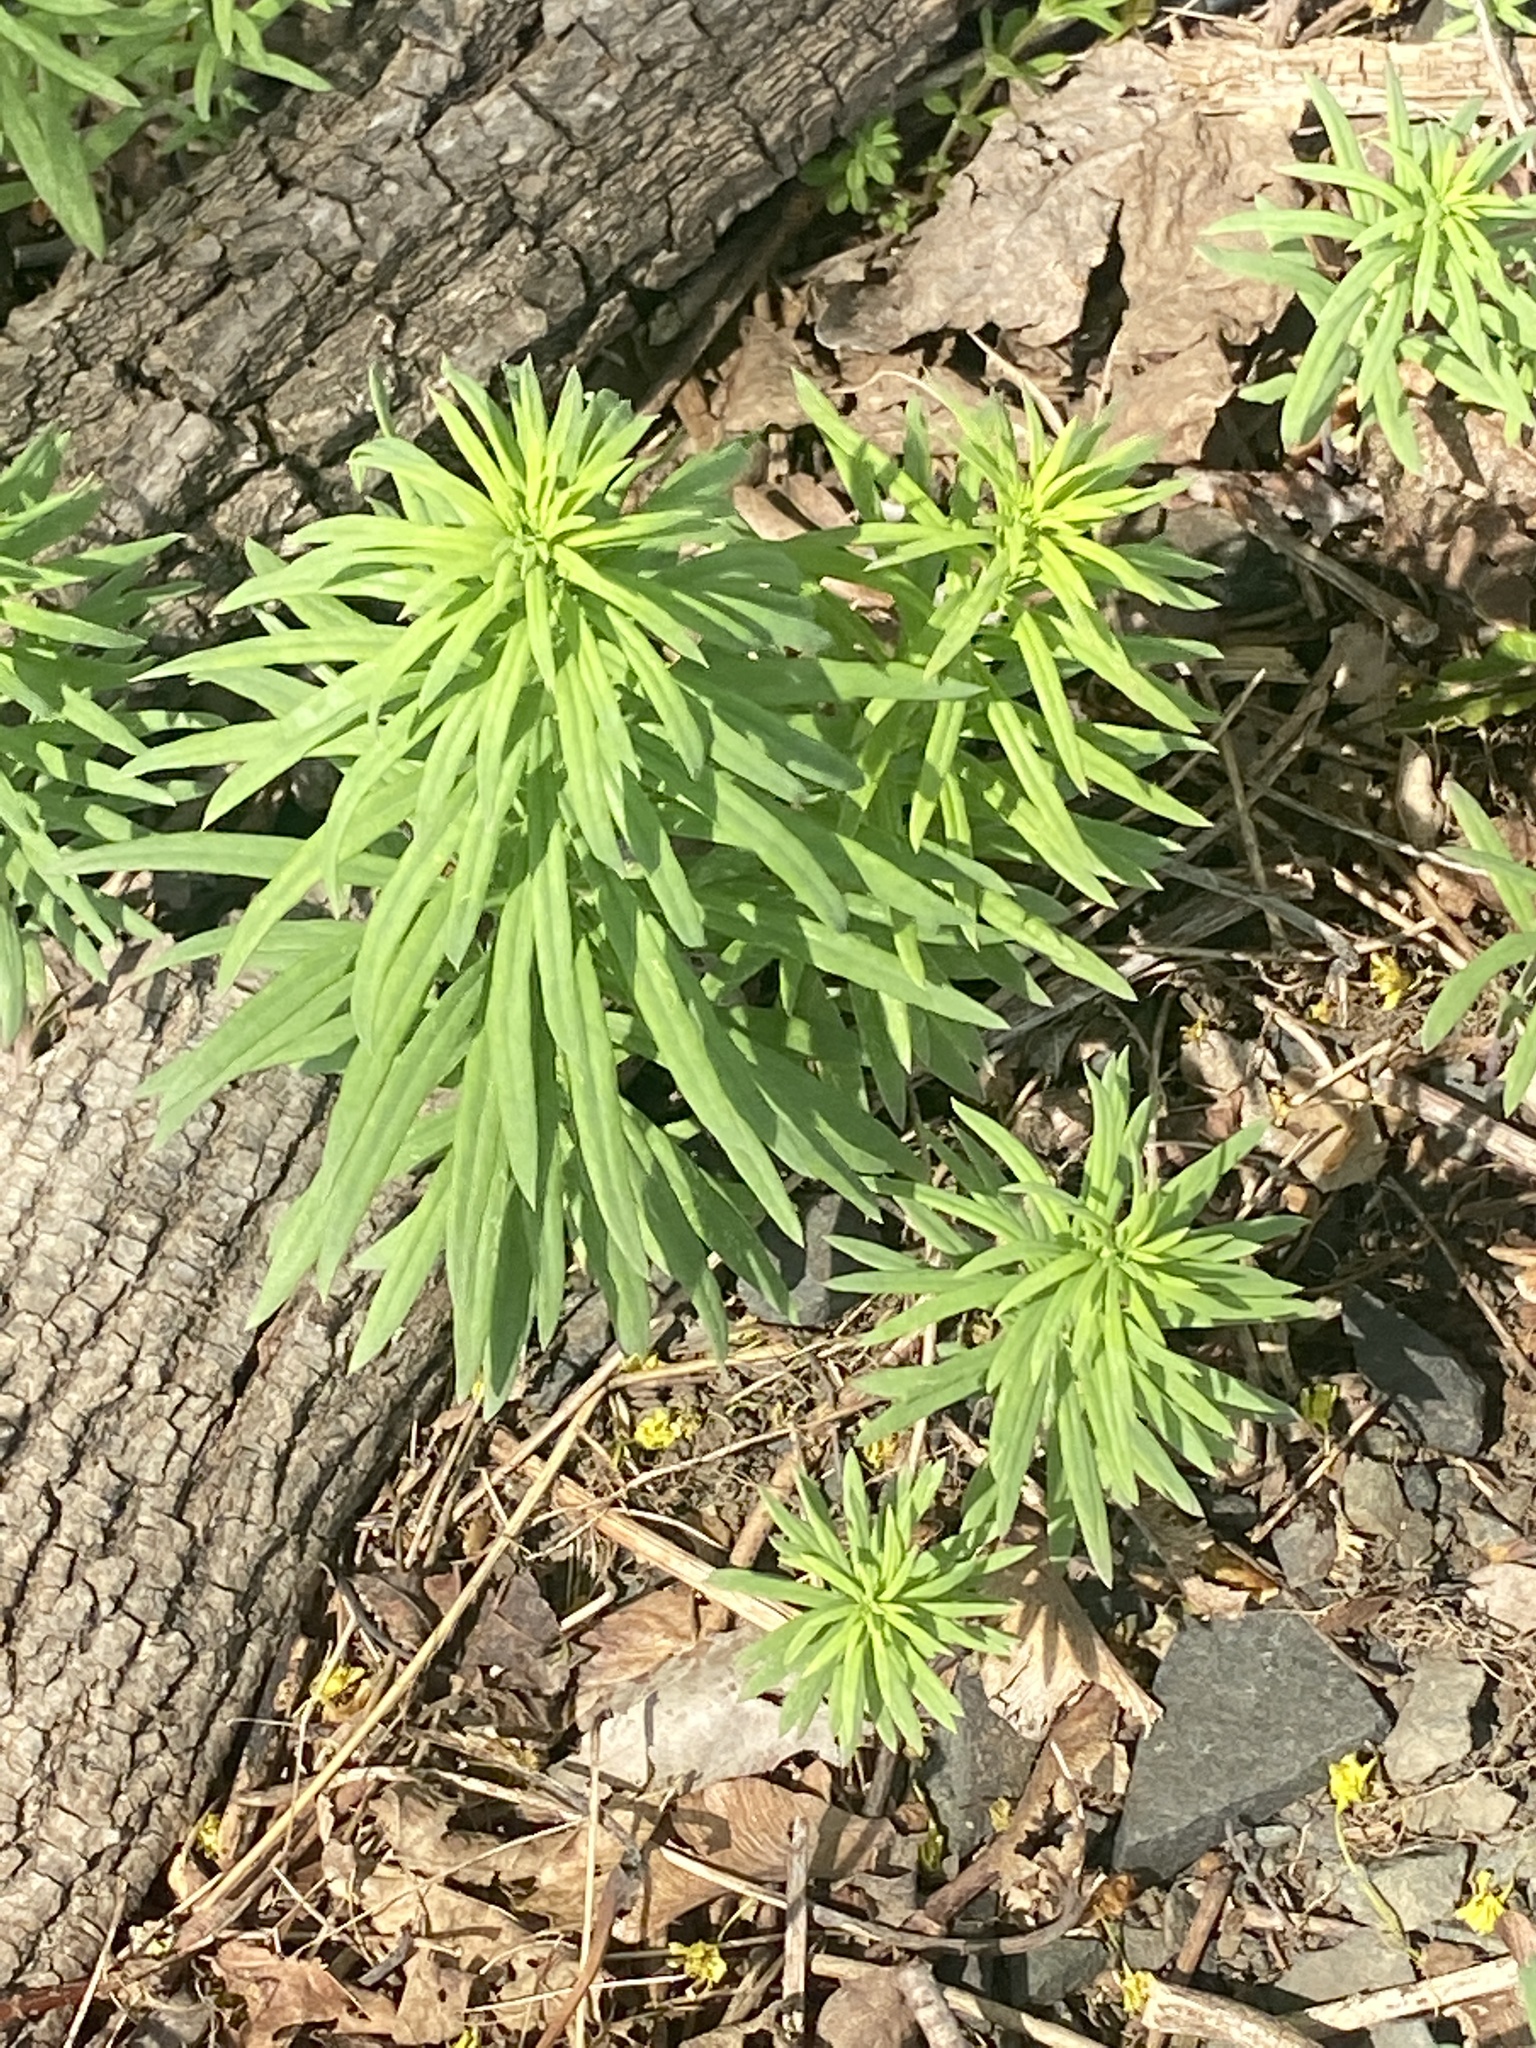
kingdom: Plantae
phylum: Tracheophyta
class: Magnoliopsida
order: Lamiales
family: Plantaginaceae
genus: Linaria
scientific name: Linaria vulgaris
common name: Butter and eggs
